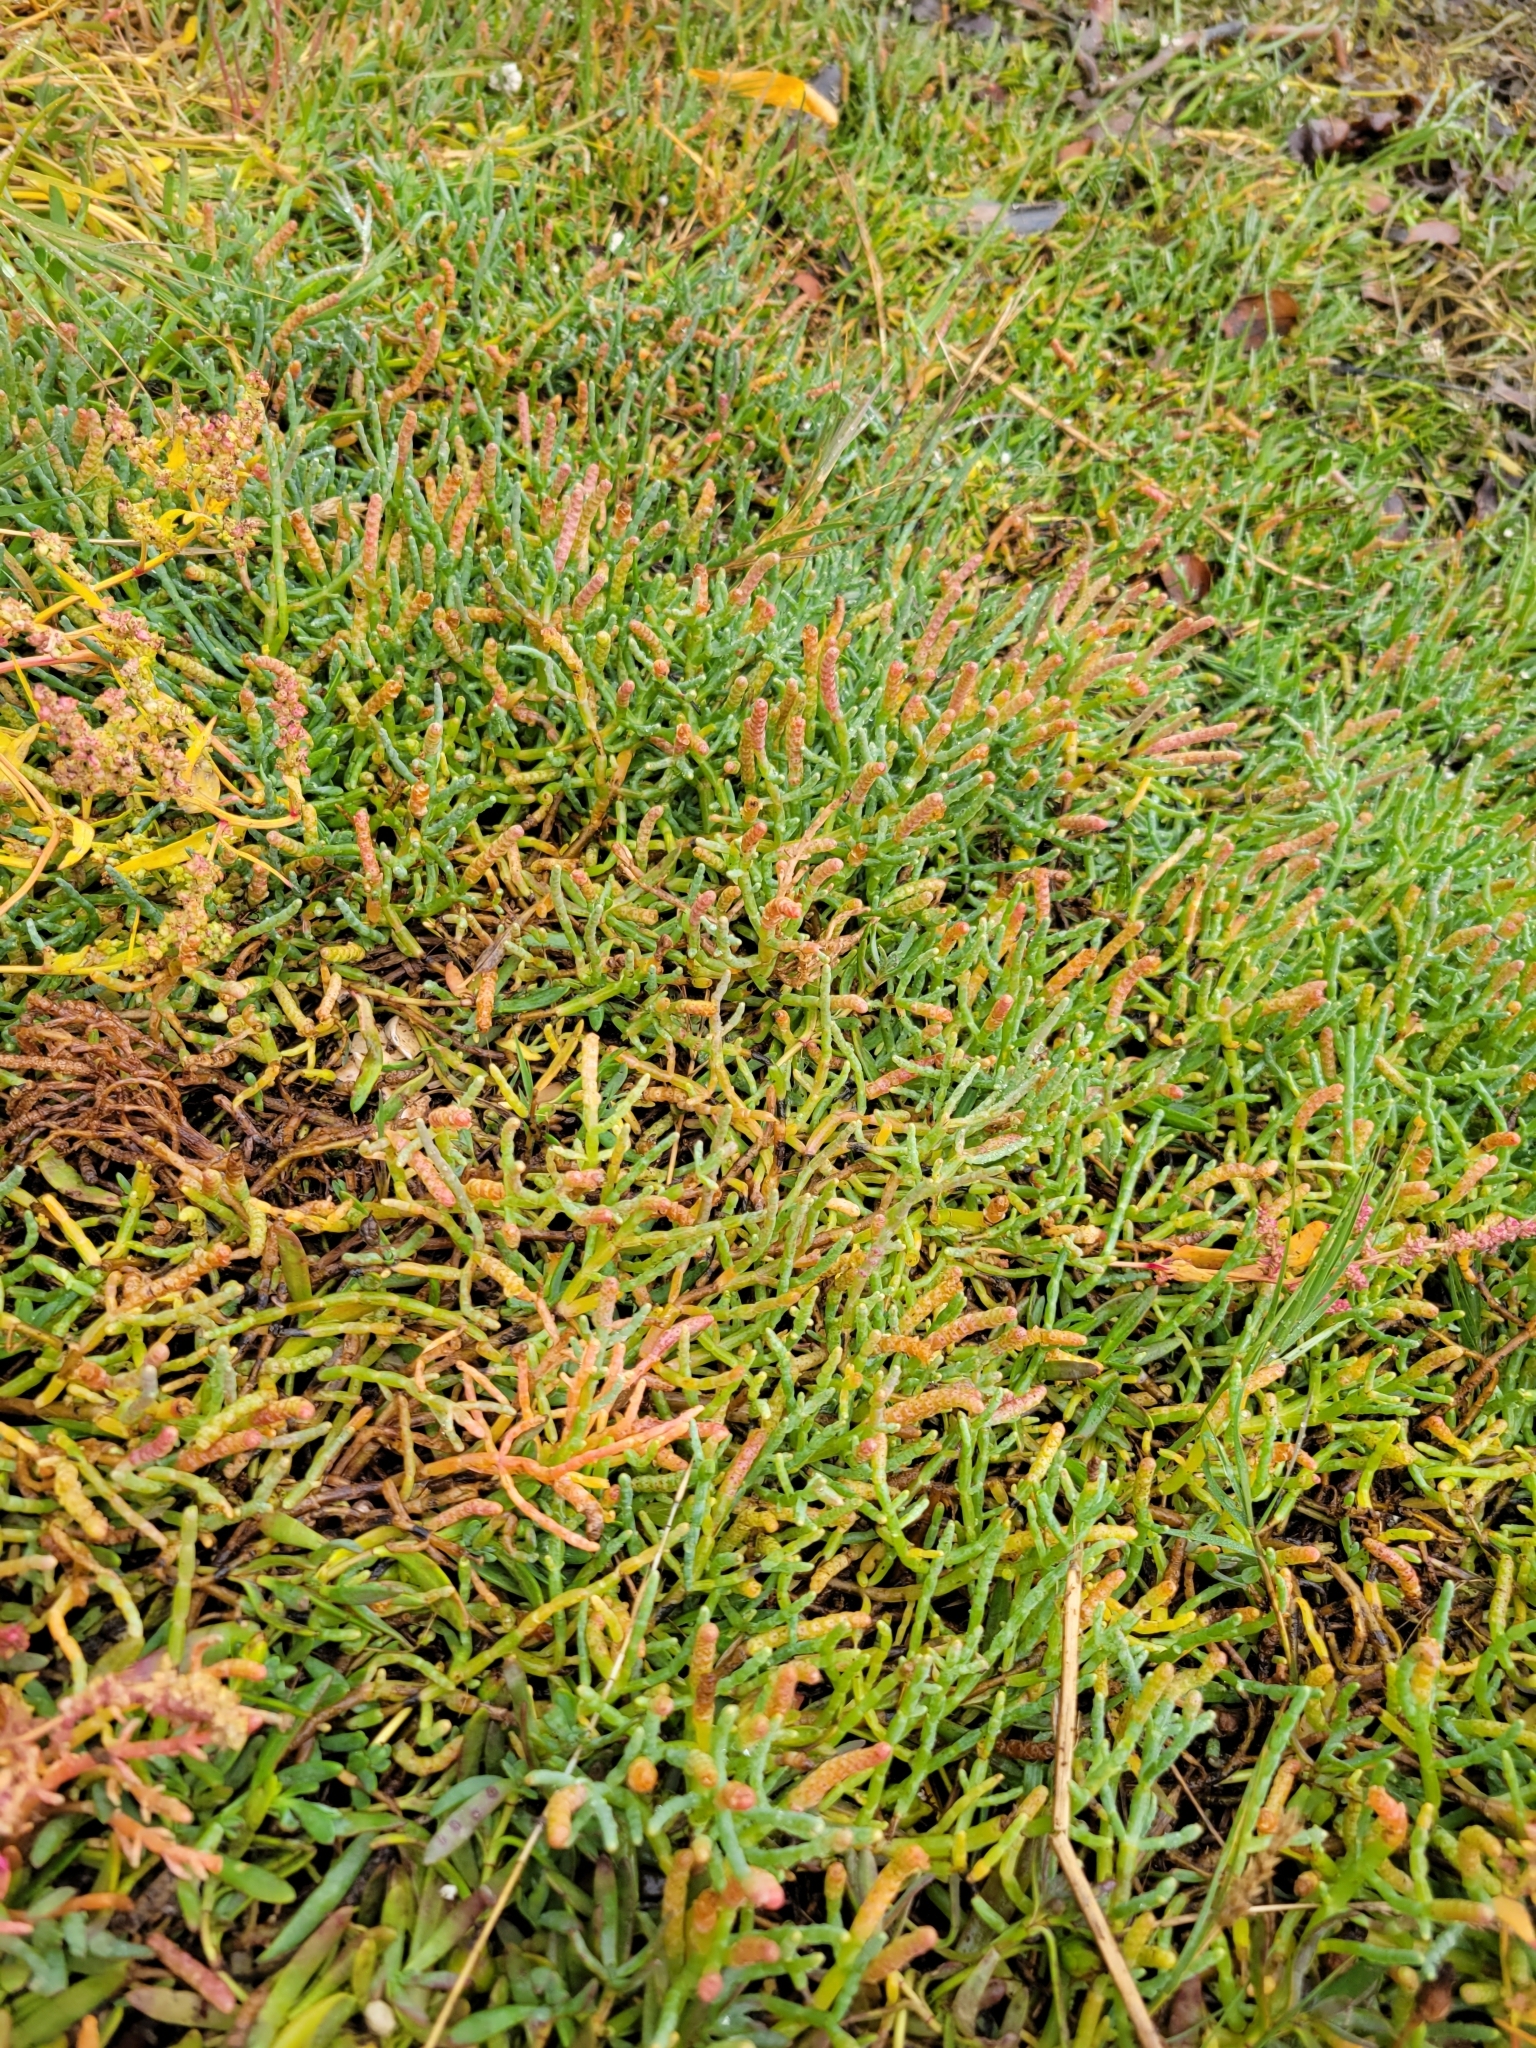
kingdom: Plantae
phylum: Tracheophyta
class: Magnoliopsida
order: Caryophyllales
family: Amaranthaceae
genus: Salicornia
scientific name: Salicornia pacifica
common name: Pacific glasswort
